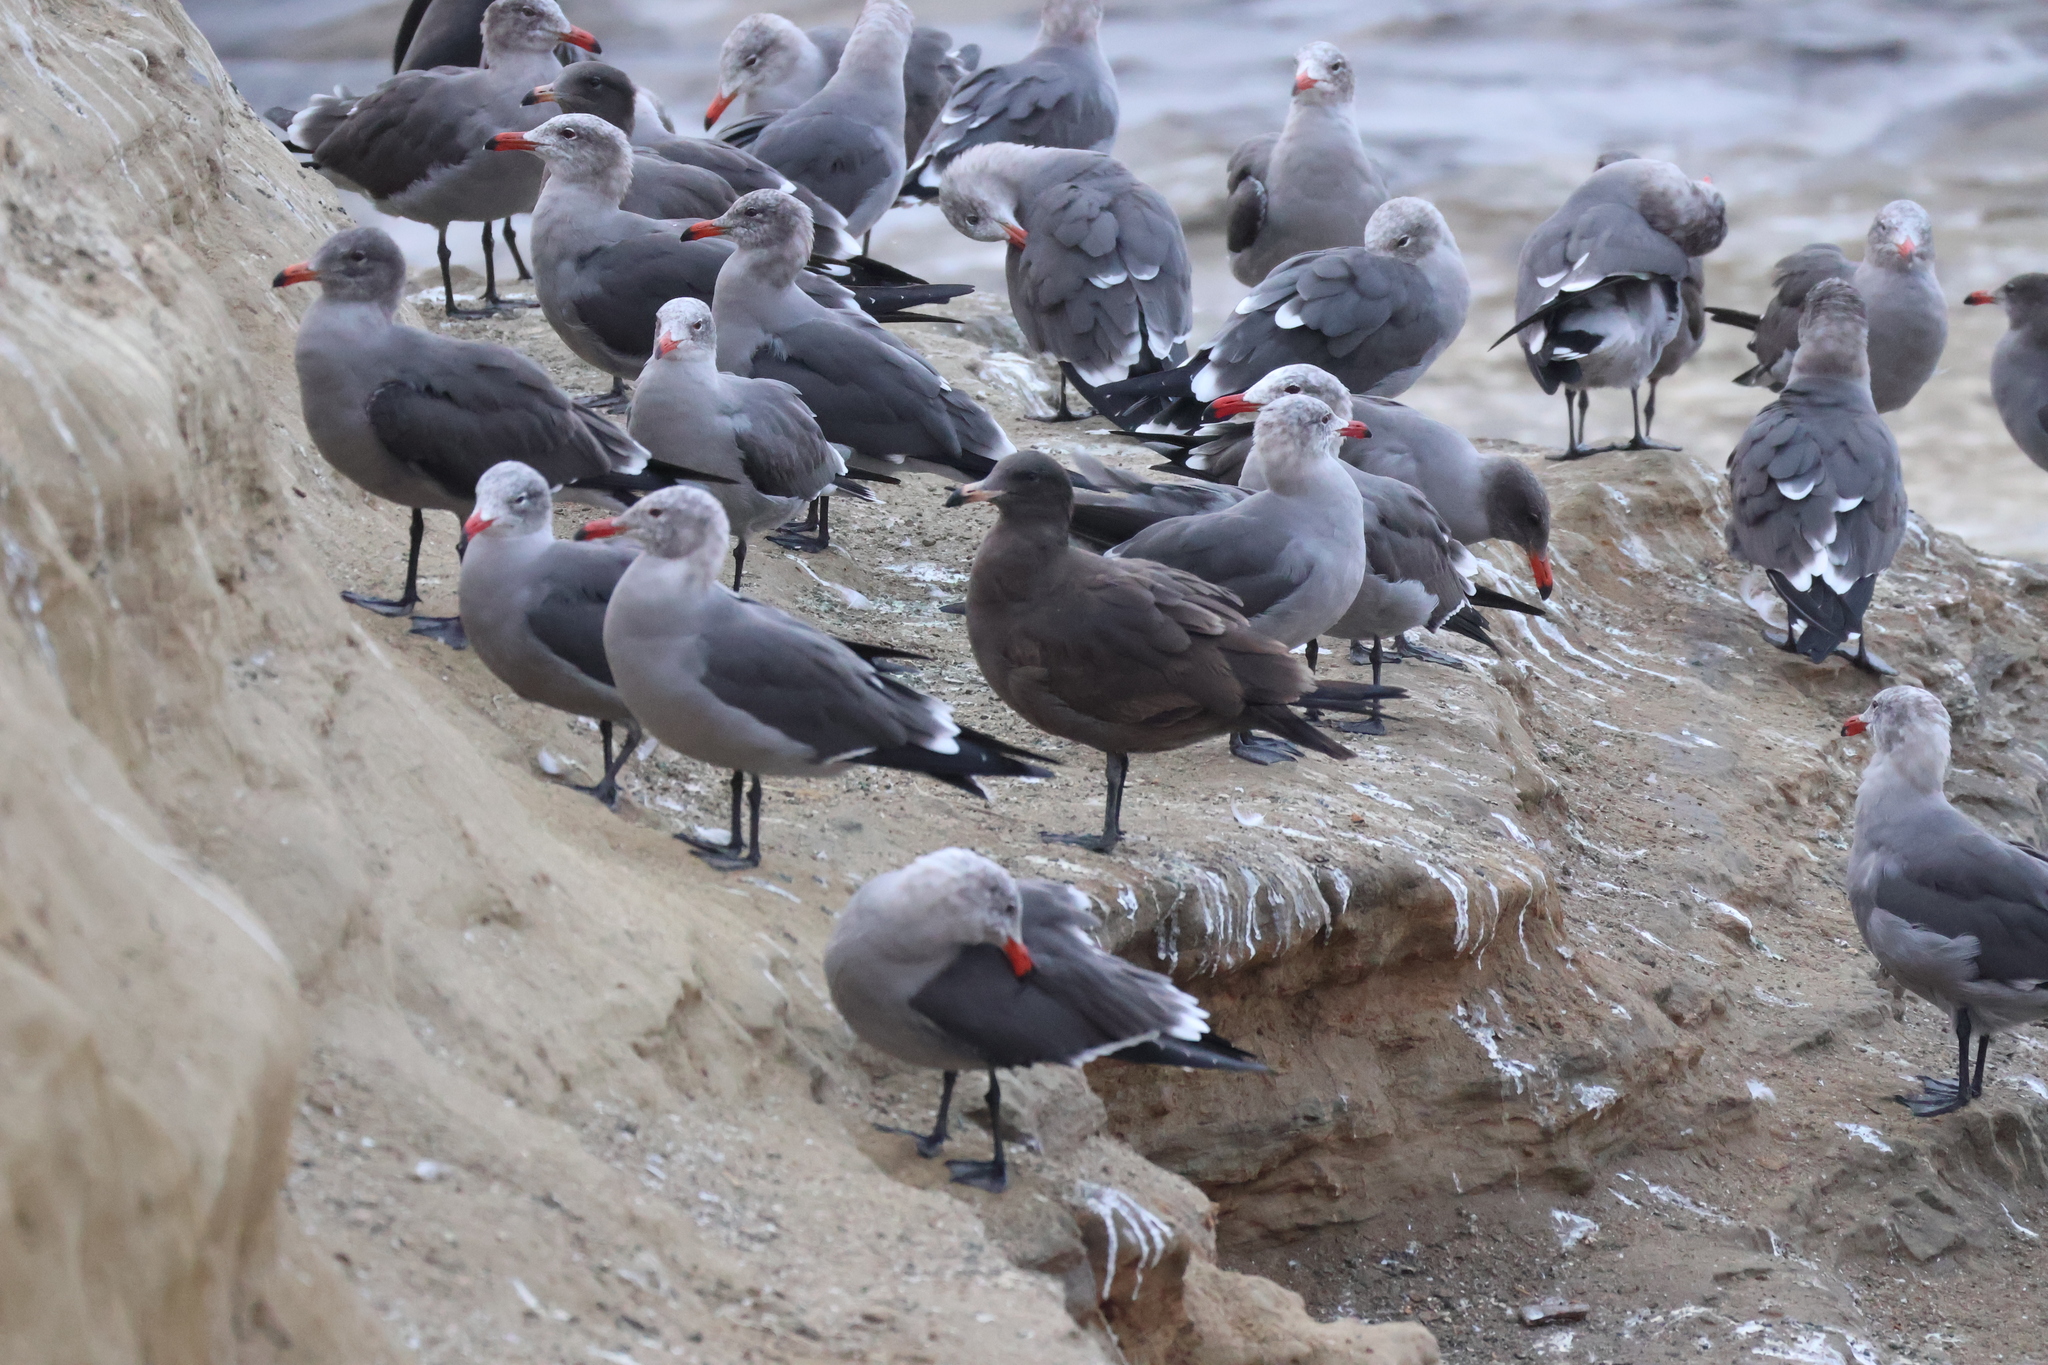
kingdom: Animalia
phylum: Chordata
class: Aves
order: Charadriiformes
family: Laridae
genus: Larus
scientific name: Larus heermanni
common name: Heermann's gull
